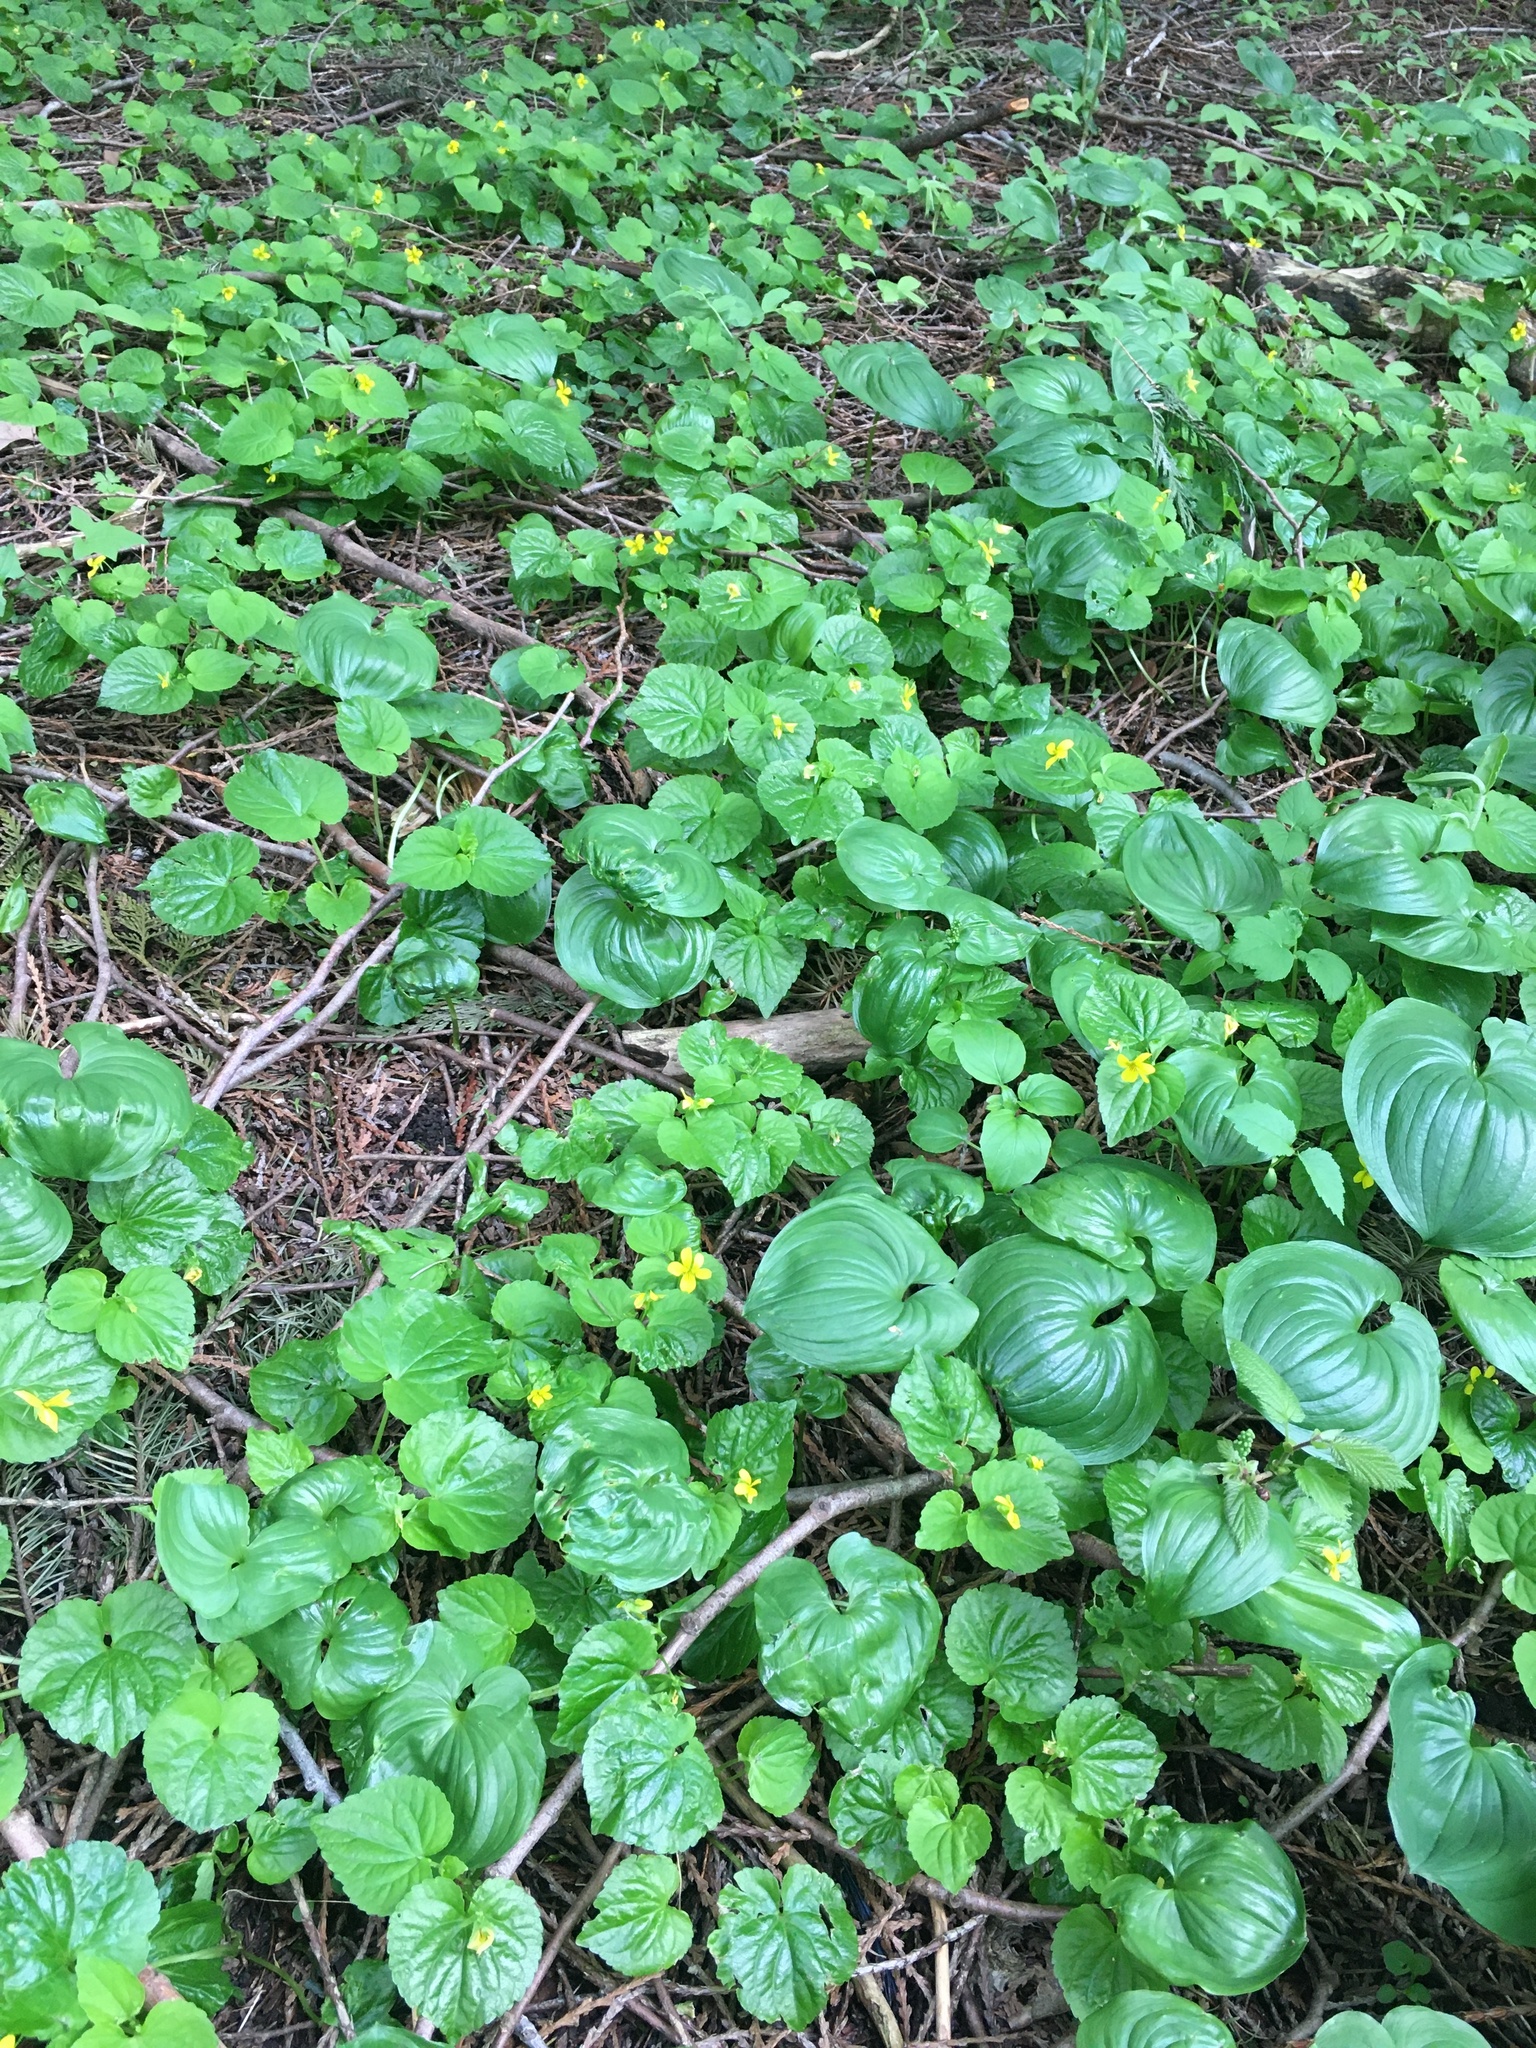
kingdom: Plantae
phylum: Tracheophyta
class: Magnoliopsida
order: Malpighiales
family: Violaceae
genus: Viola
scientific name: Viola glabella
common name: Stream violet
